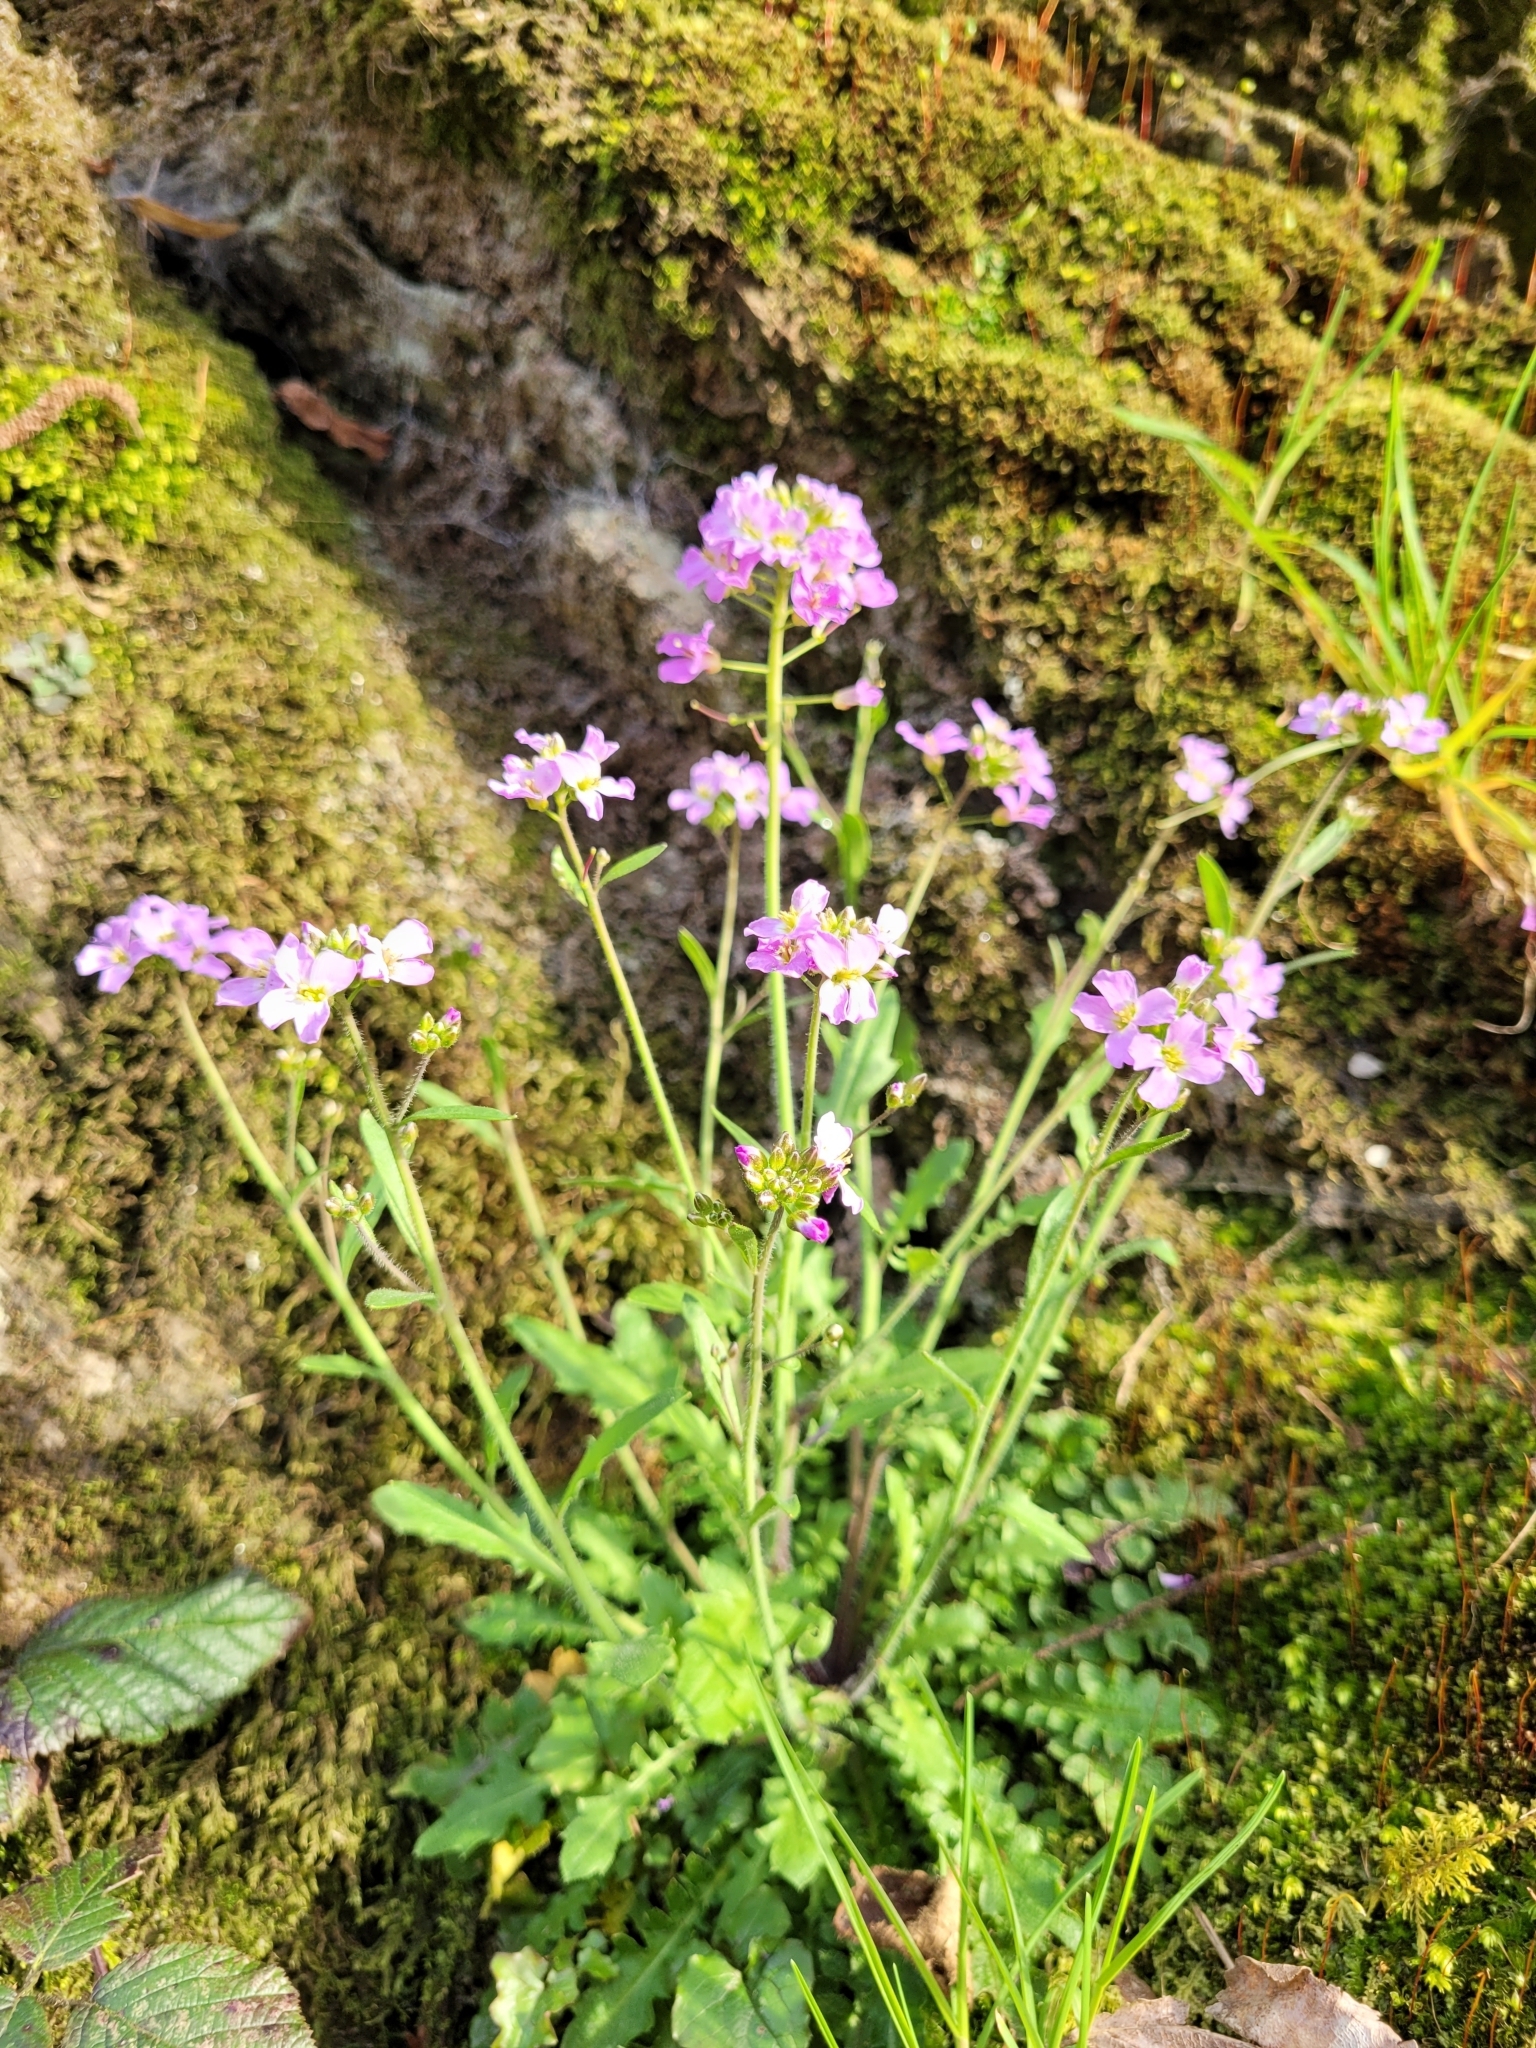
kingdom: Plantae
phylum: Tracheophyta
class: Magnoliopsida
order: Brassicales
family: Brassicaceae
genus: Arabidopsis
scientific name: Arabidopsis arenosa
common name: Sand rock-cress
